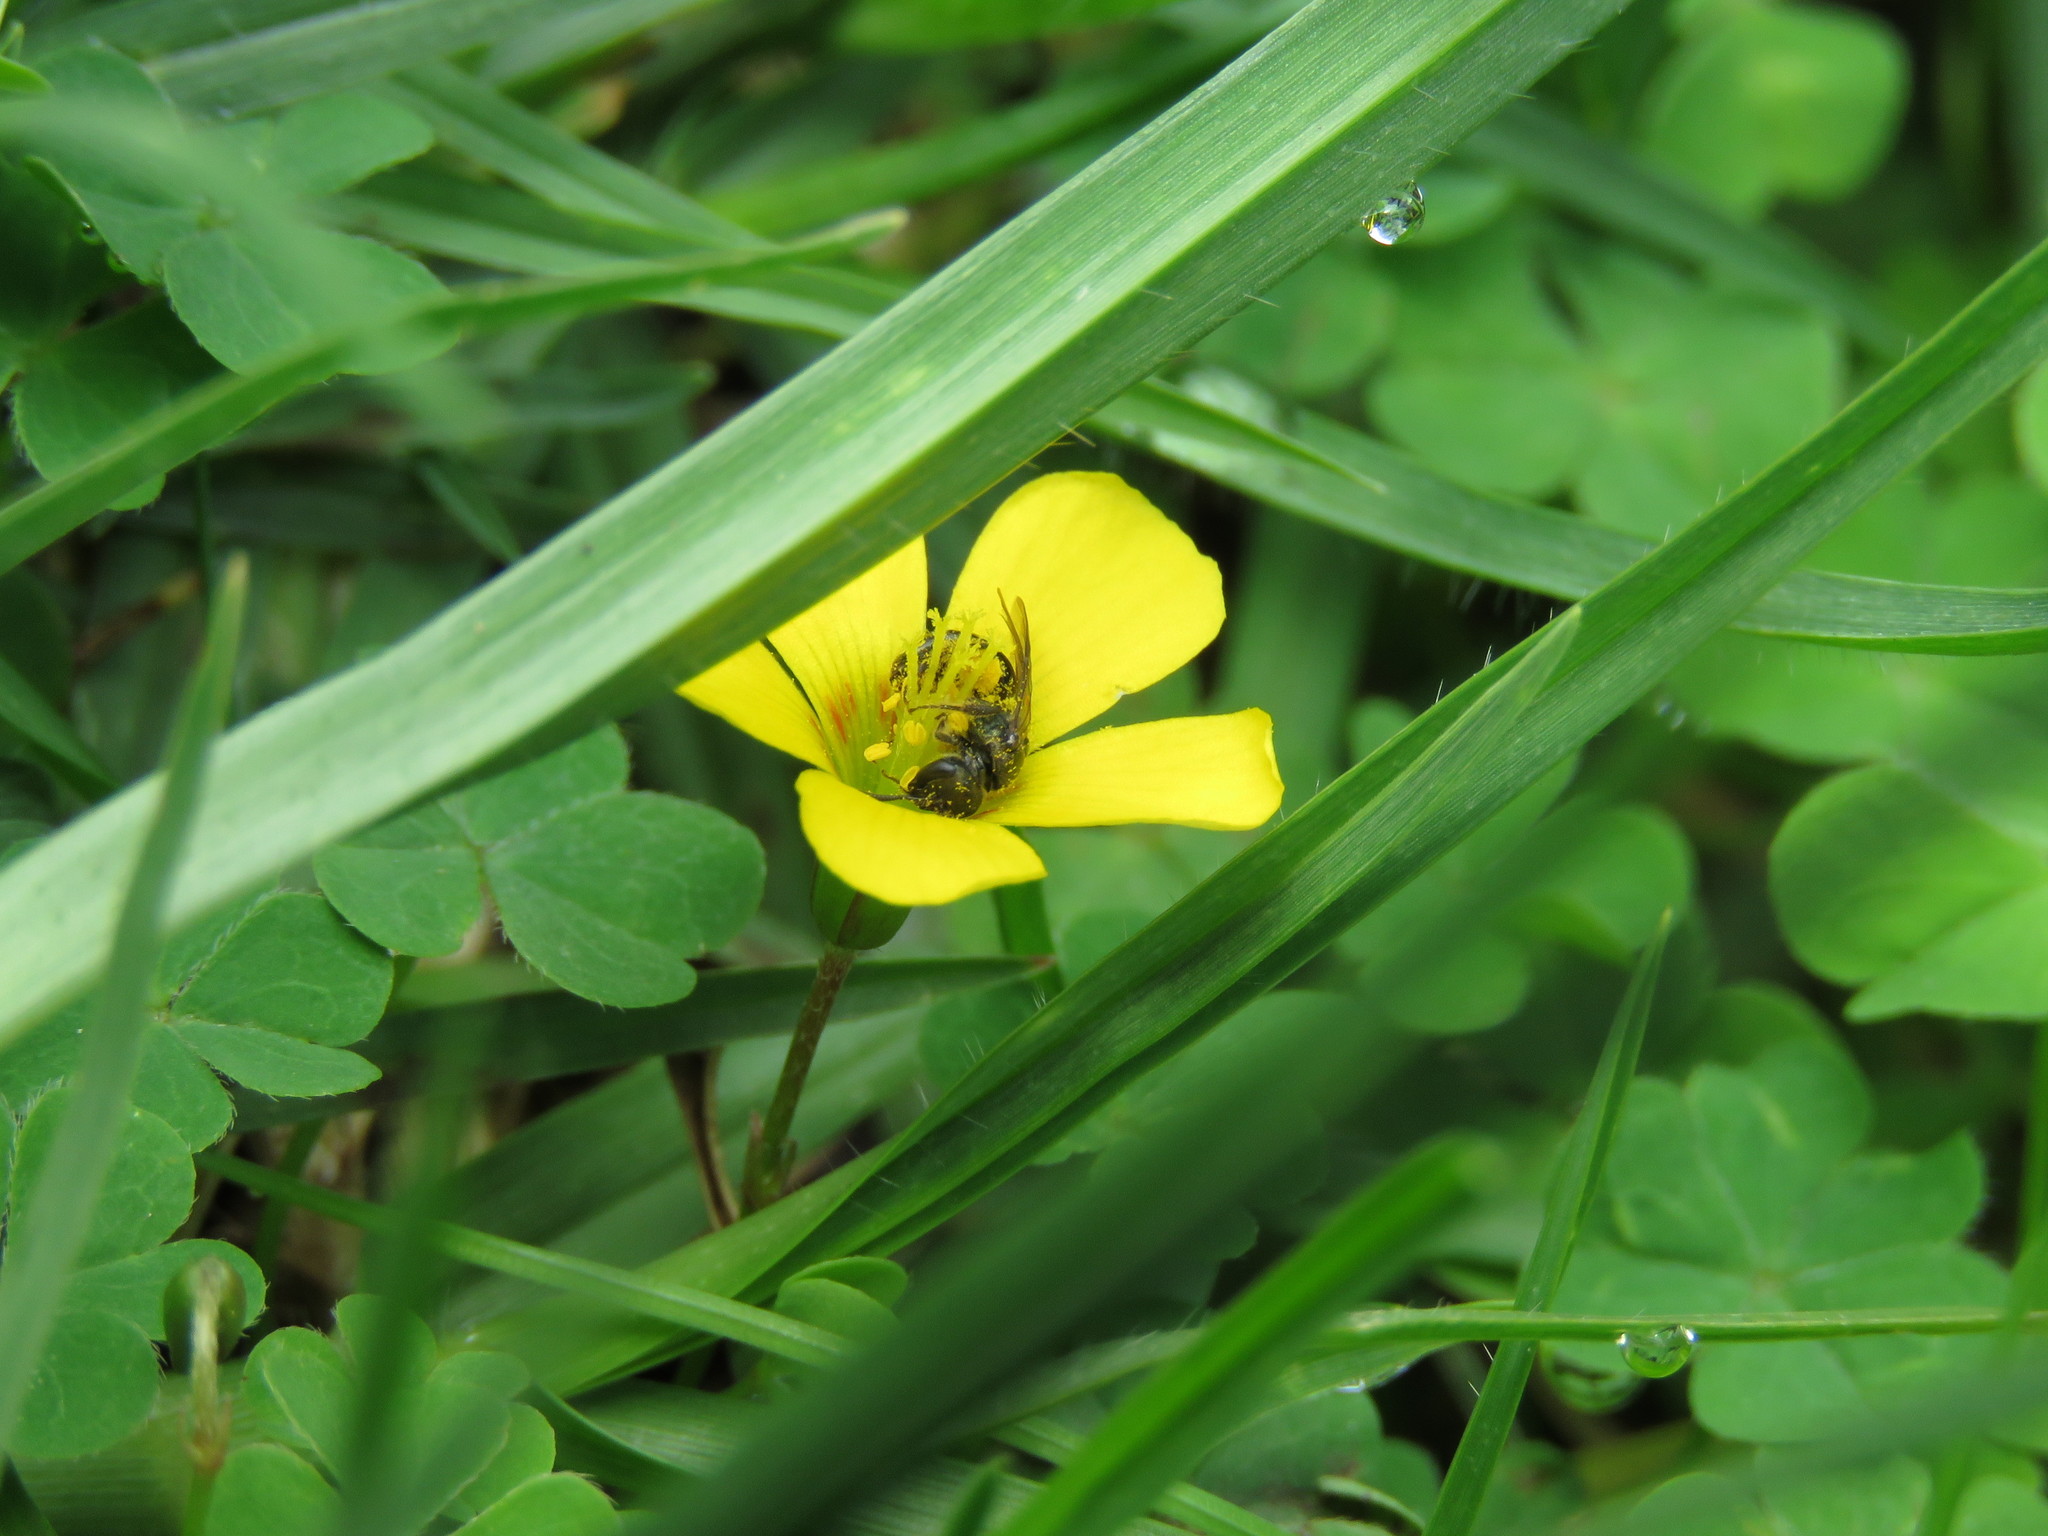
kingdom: Plantae
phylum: Tracheophyta
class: Magnoliopsida
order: Oxalidales
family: Oxalidaceae
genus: Oxalis
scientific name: Oxalis corniculata
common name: Procumbent yellow-sorrel
